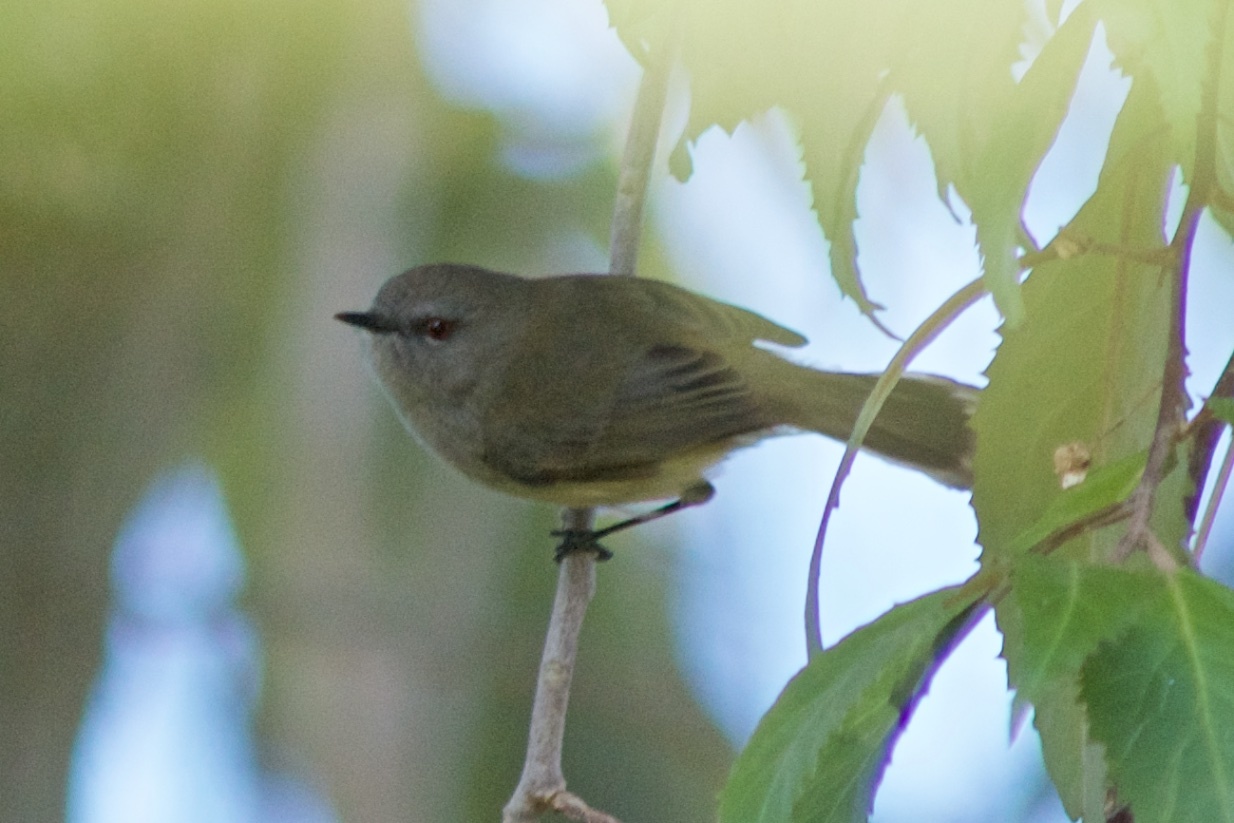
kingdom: Animalia
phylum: Chordata
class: Aves
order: Passeriformes
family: Acanthizidae
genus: Gerygone
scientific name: Gerygone igata
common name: Grey gerygone
